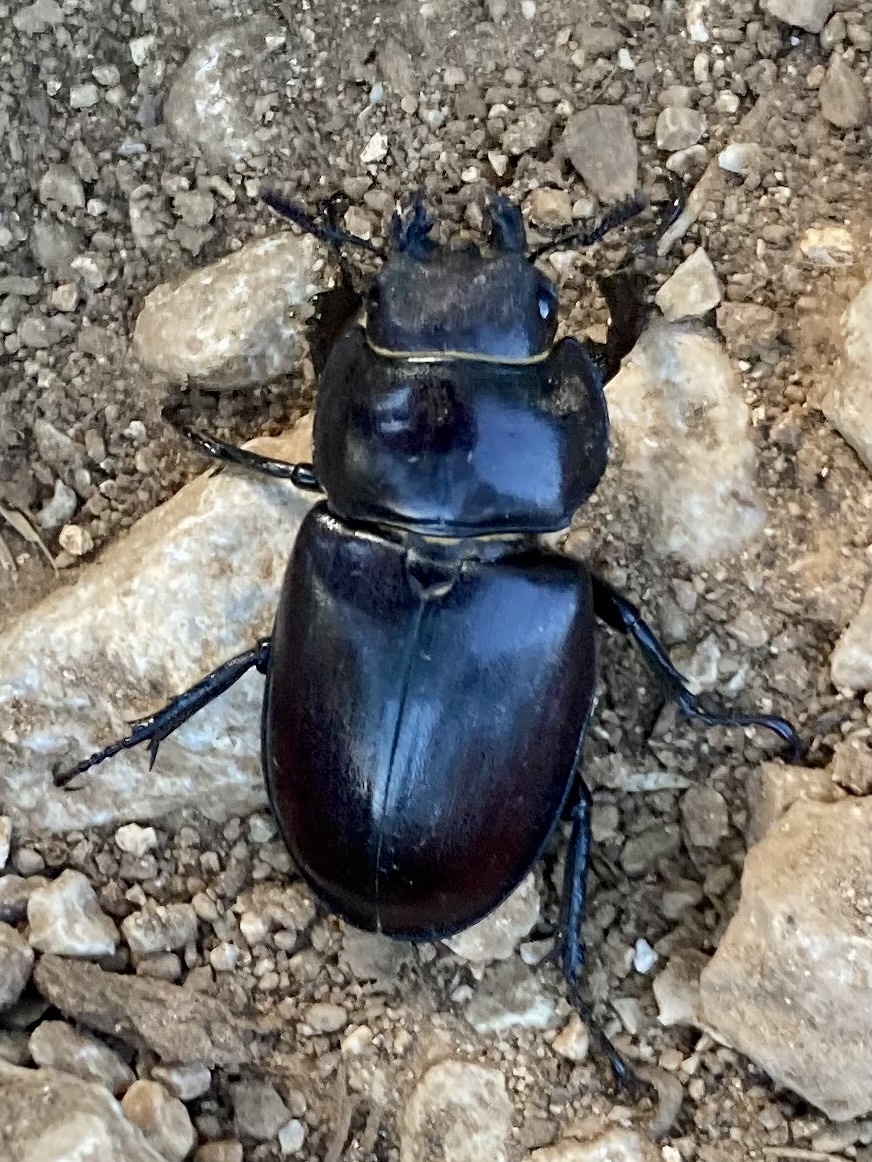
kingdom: Animalia
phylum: Arthropoda
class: Insecta
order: Coleoptera
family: Lucanidae
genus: Lucanus
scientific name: Lucanus tetraodon
